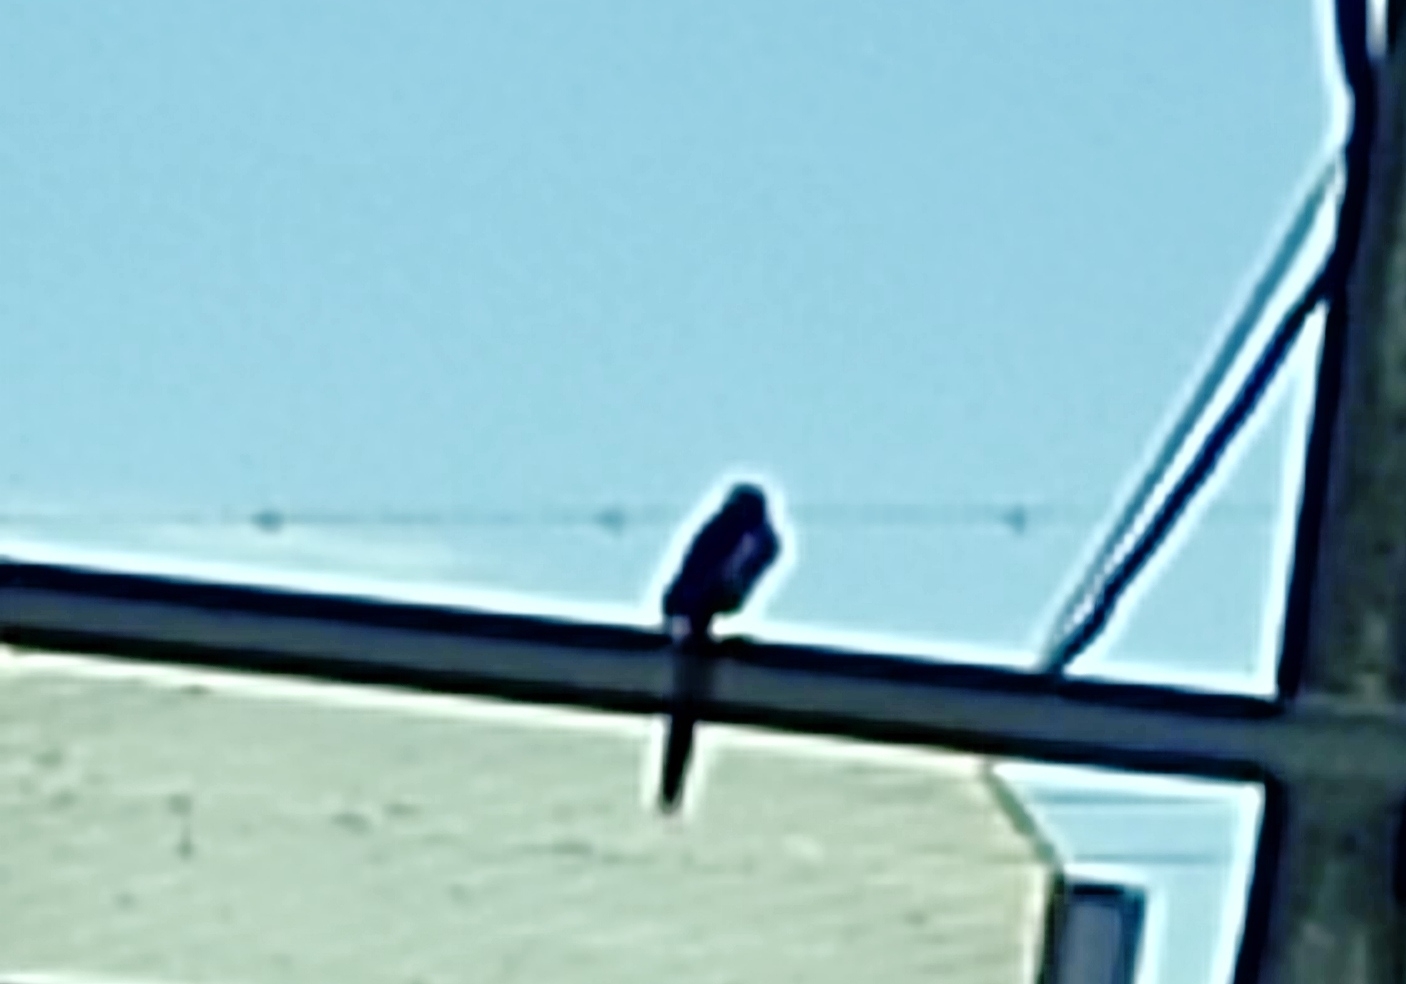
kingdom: Animalia
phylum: Chordata
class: Aves
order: Passeriformes
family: Corvidae
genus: Pica
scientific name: Pica pica
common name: Eurasian magpie
